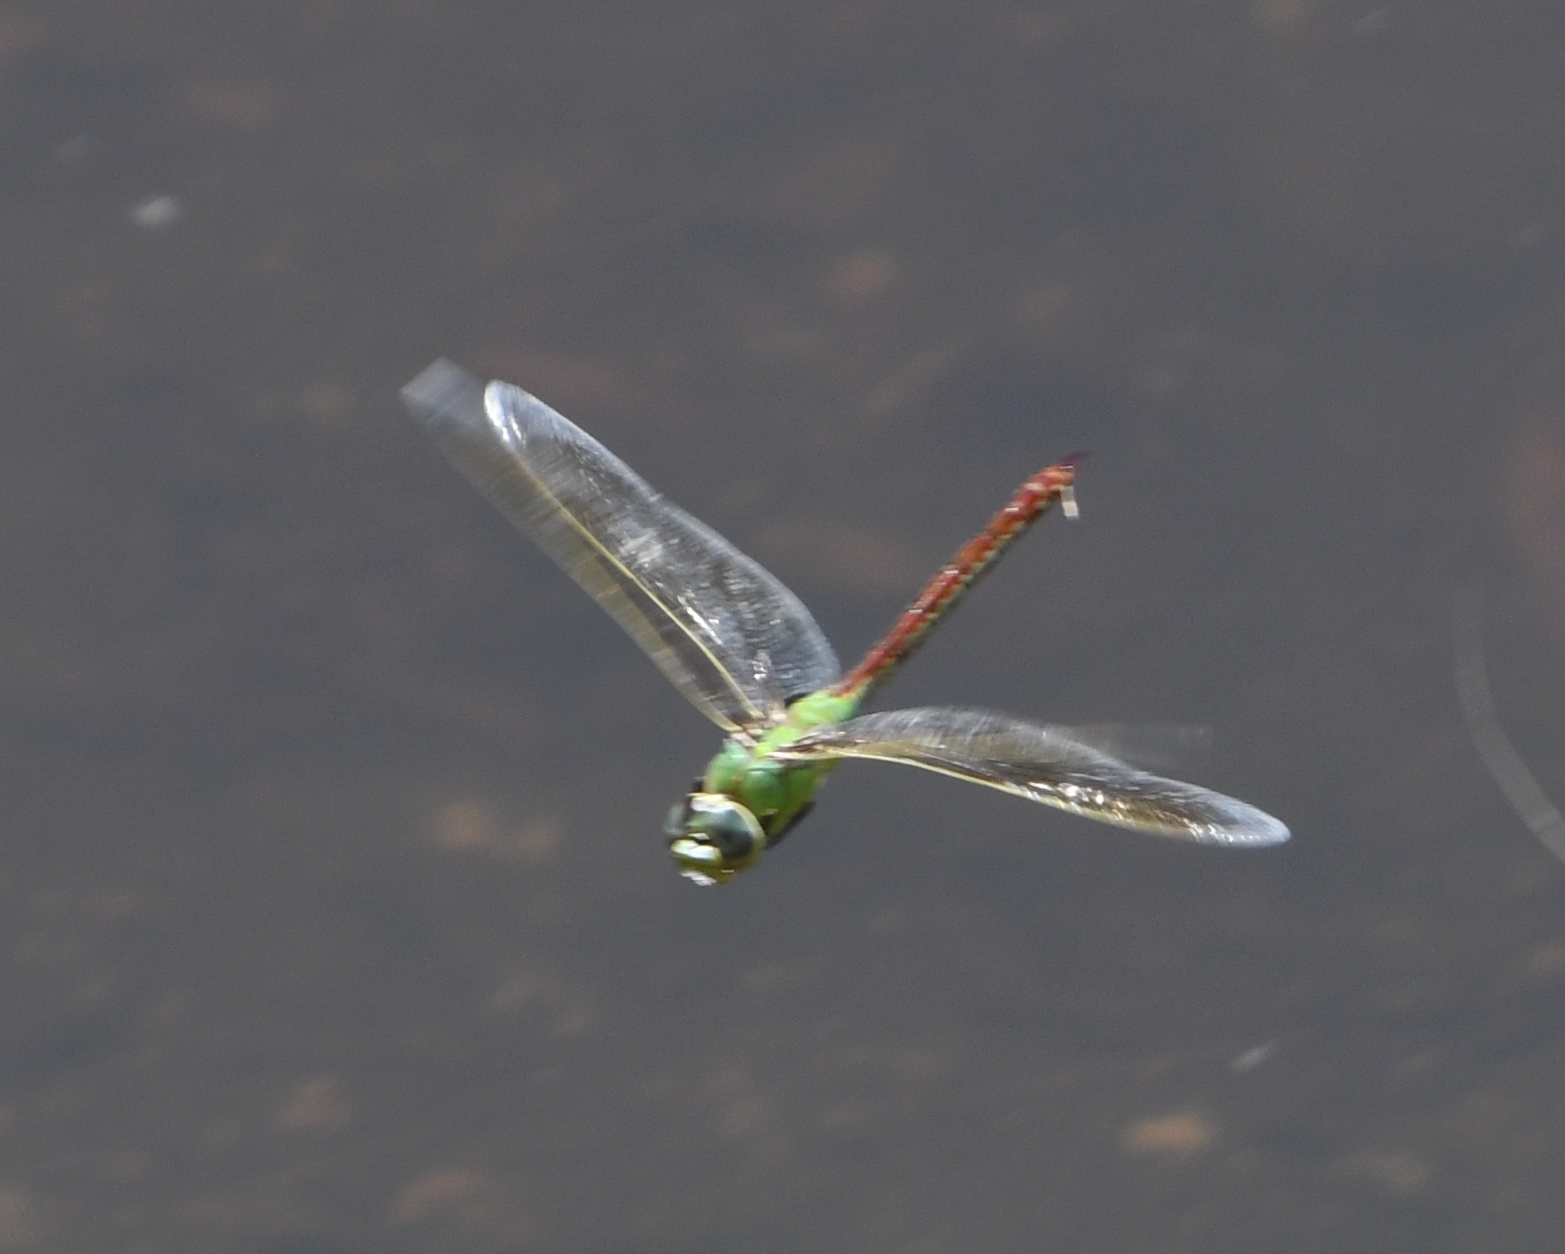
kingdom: Animalia
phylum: Arthropoda
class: Insecta
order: Odonata
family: Aeshnidae
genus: Anax
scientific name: Anax junius
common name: Common green darner
